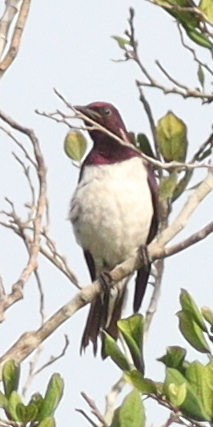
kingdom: Animalia
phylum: Chordata
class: Aves
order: Passeriformes
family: Sturnidae
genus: Cinnyricinclus
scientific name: Cinnyricinclus leucogaster
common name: Violet-backed starling
